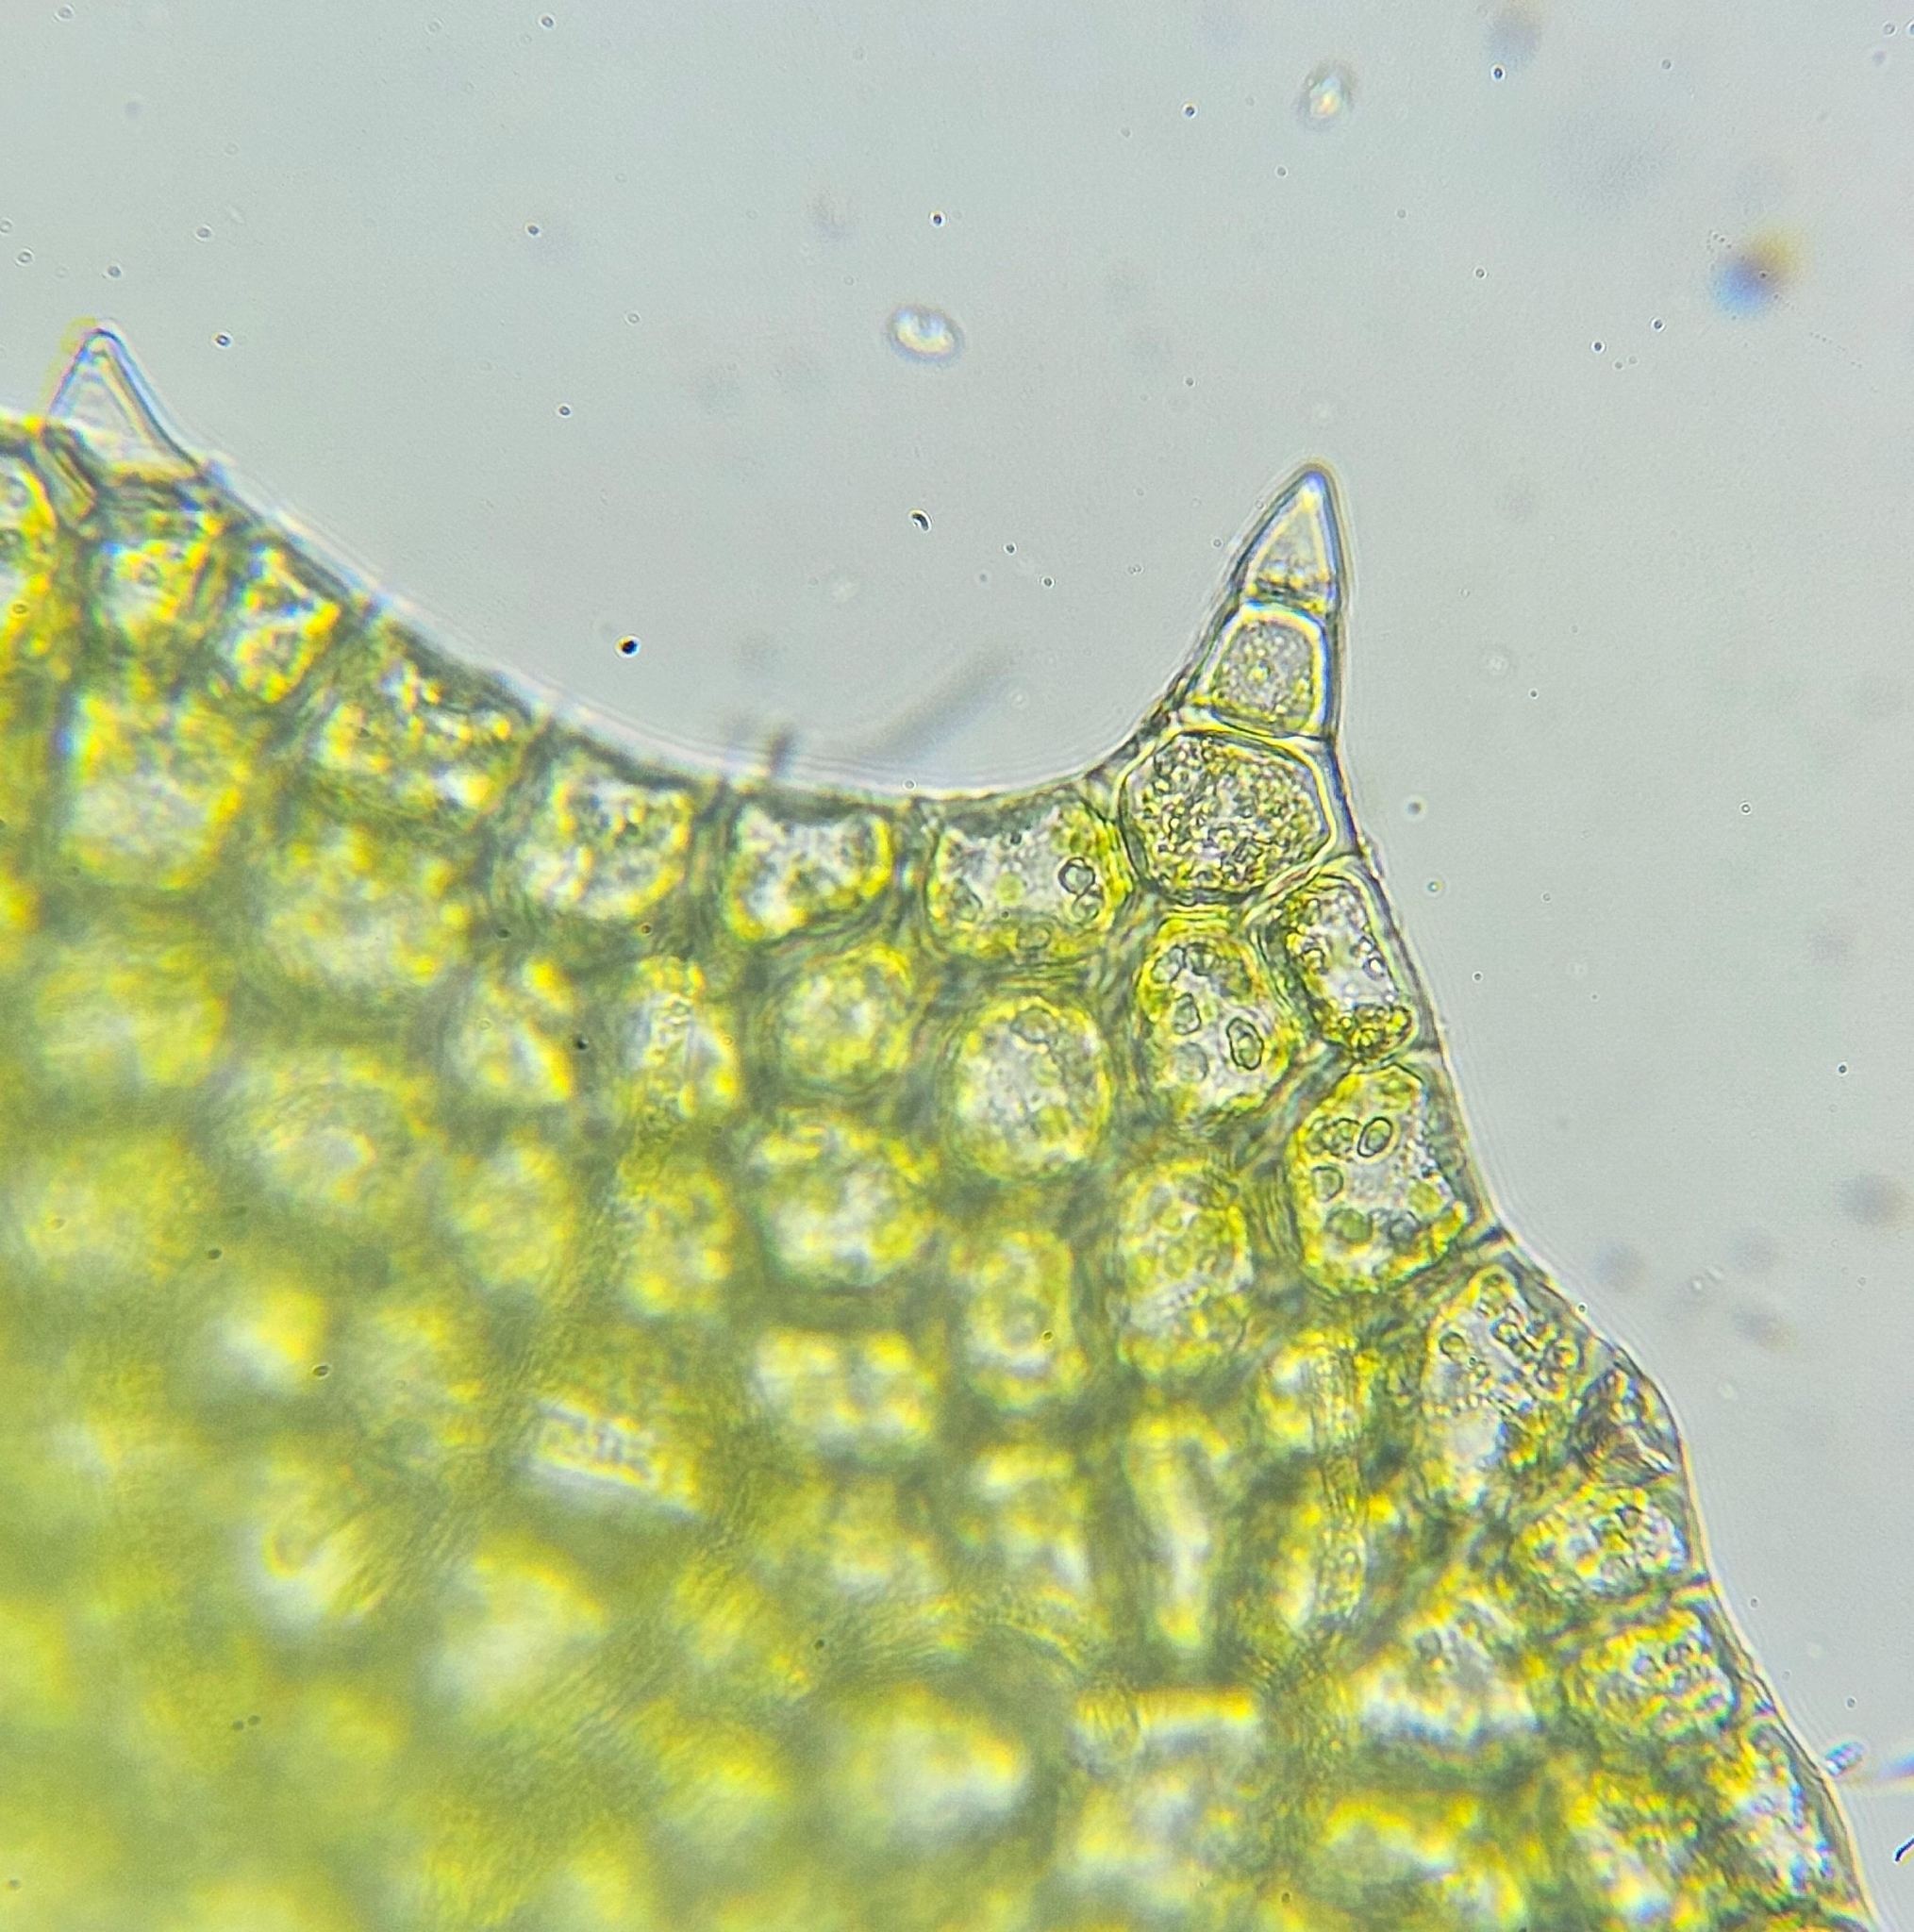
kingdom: Plantae
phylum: Marchantiophyta
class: Jungermanniopsida
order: Jungermanniales
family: Plagiochilaceae
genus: Plagiochila
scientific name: Plagiochila porelloides
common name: Lesser featherwort
